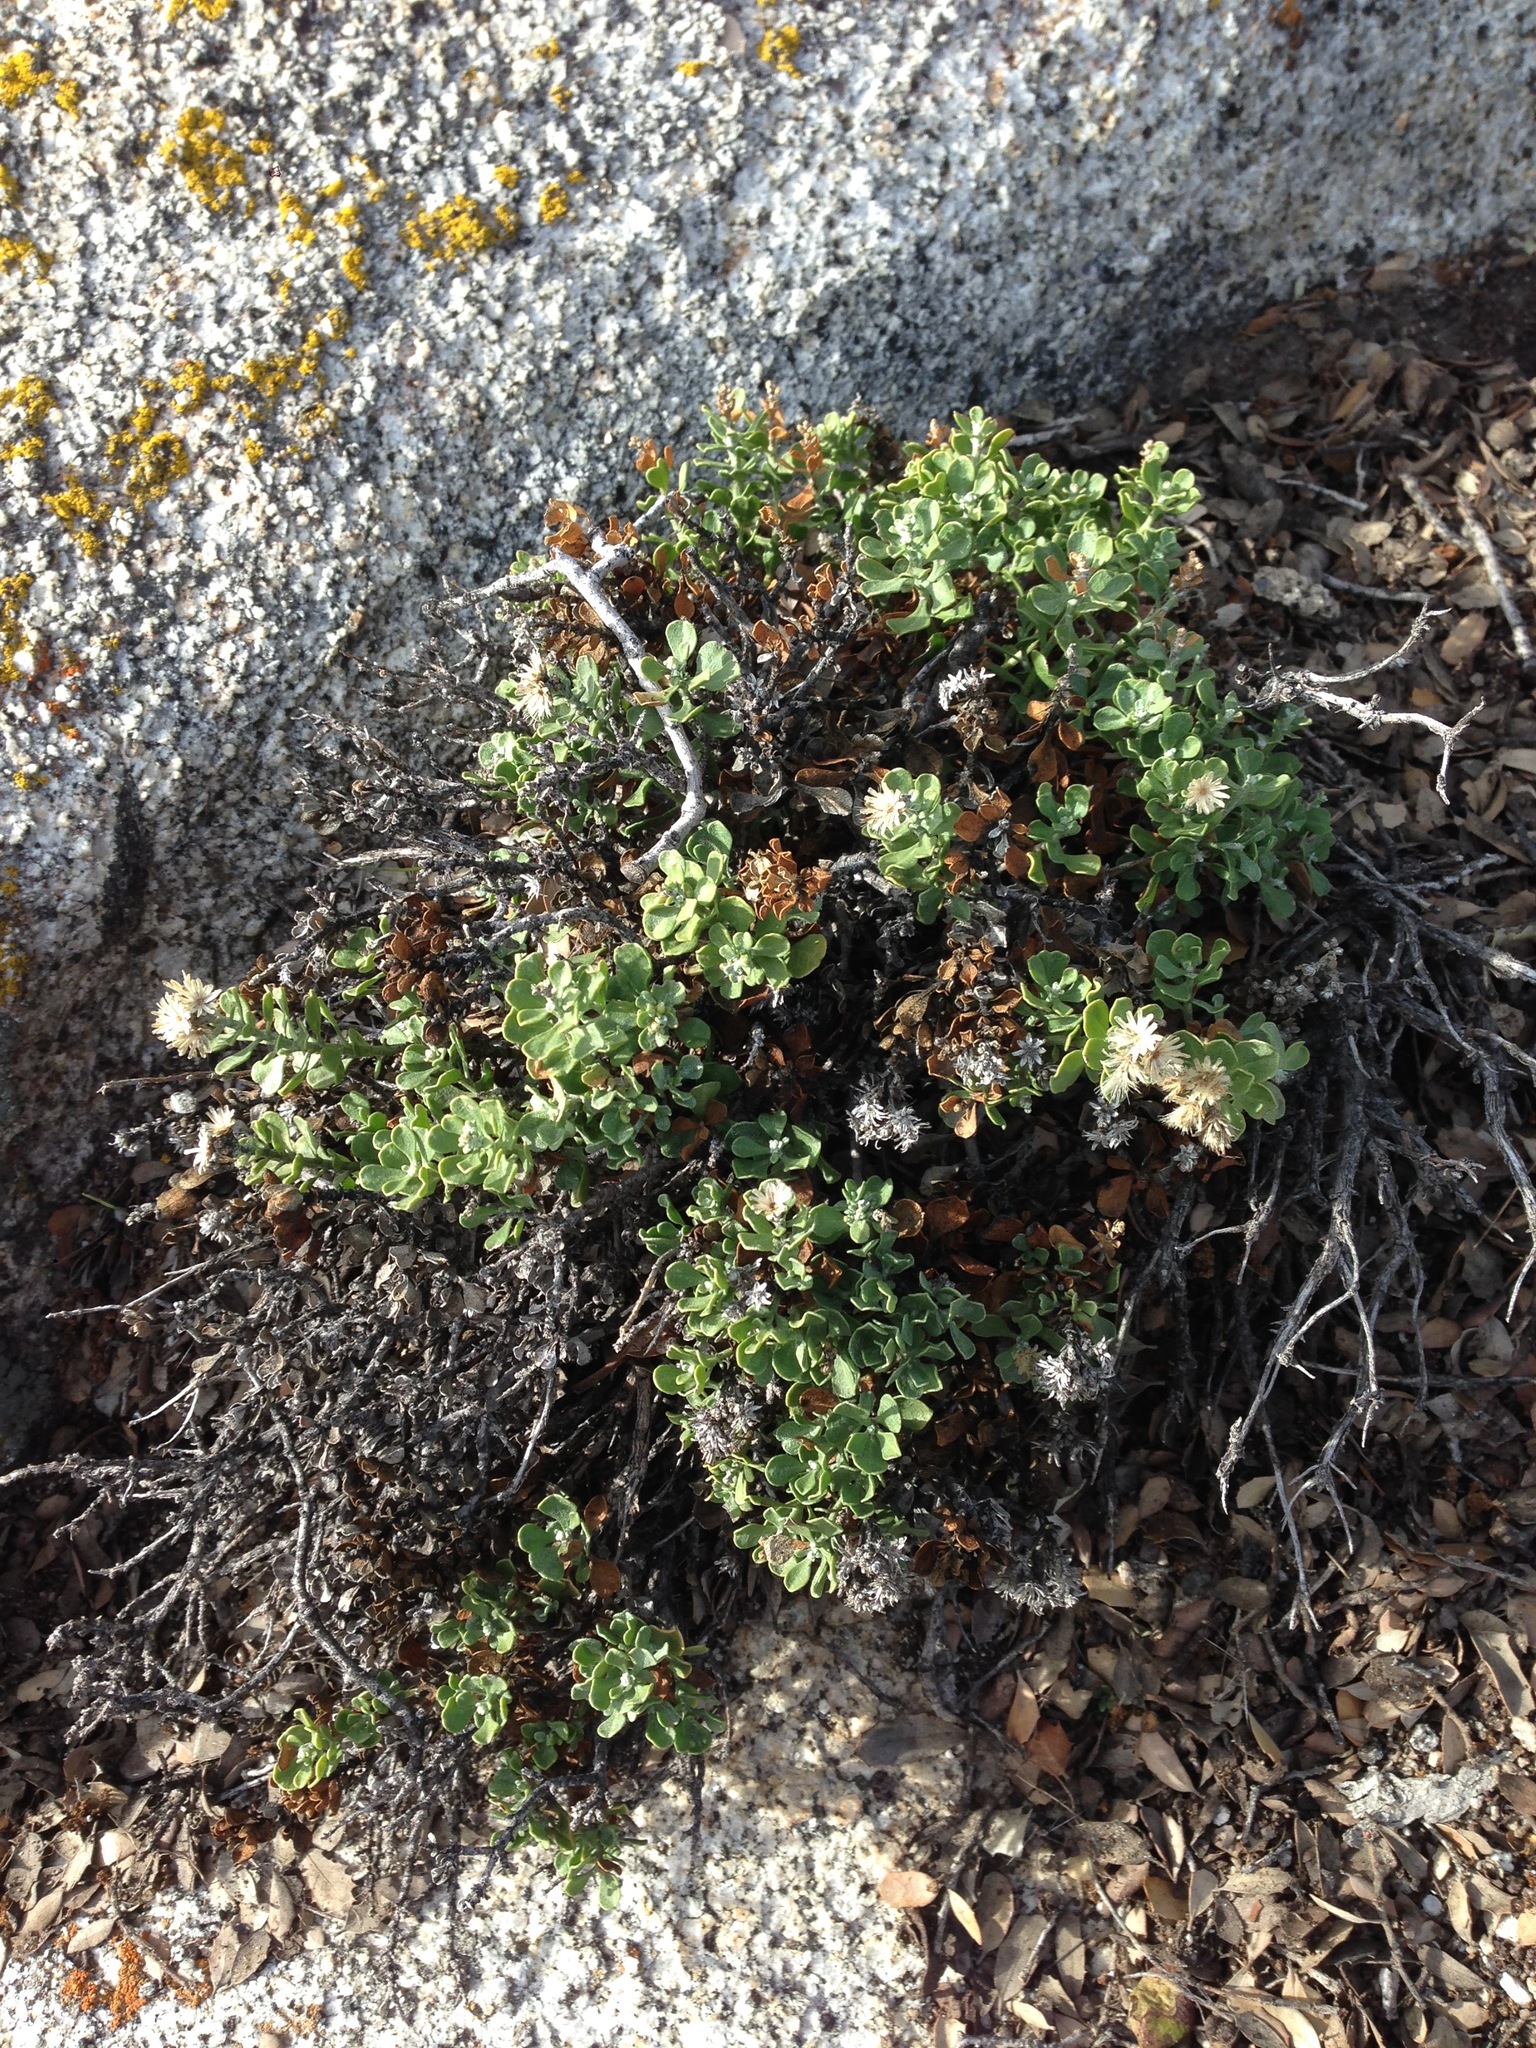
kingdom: Plantae
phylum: Tracheophyta
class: Magnoliopsida
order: Asterales
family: Asteraceae
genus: Ericameria
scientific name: Ericameria cuneata
